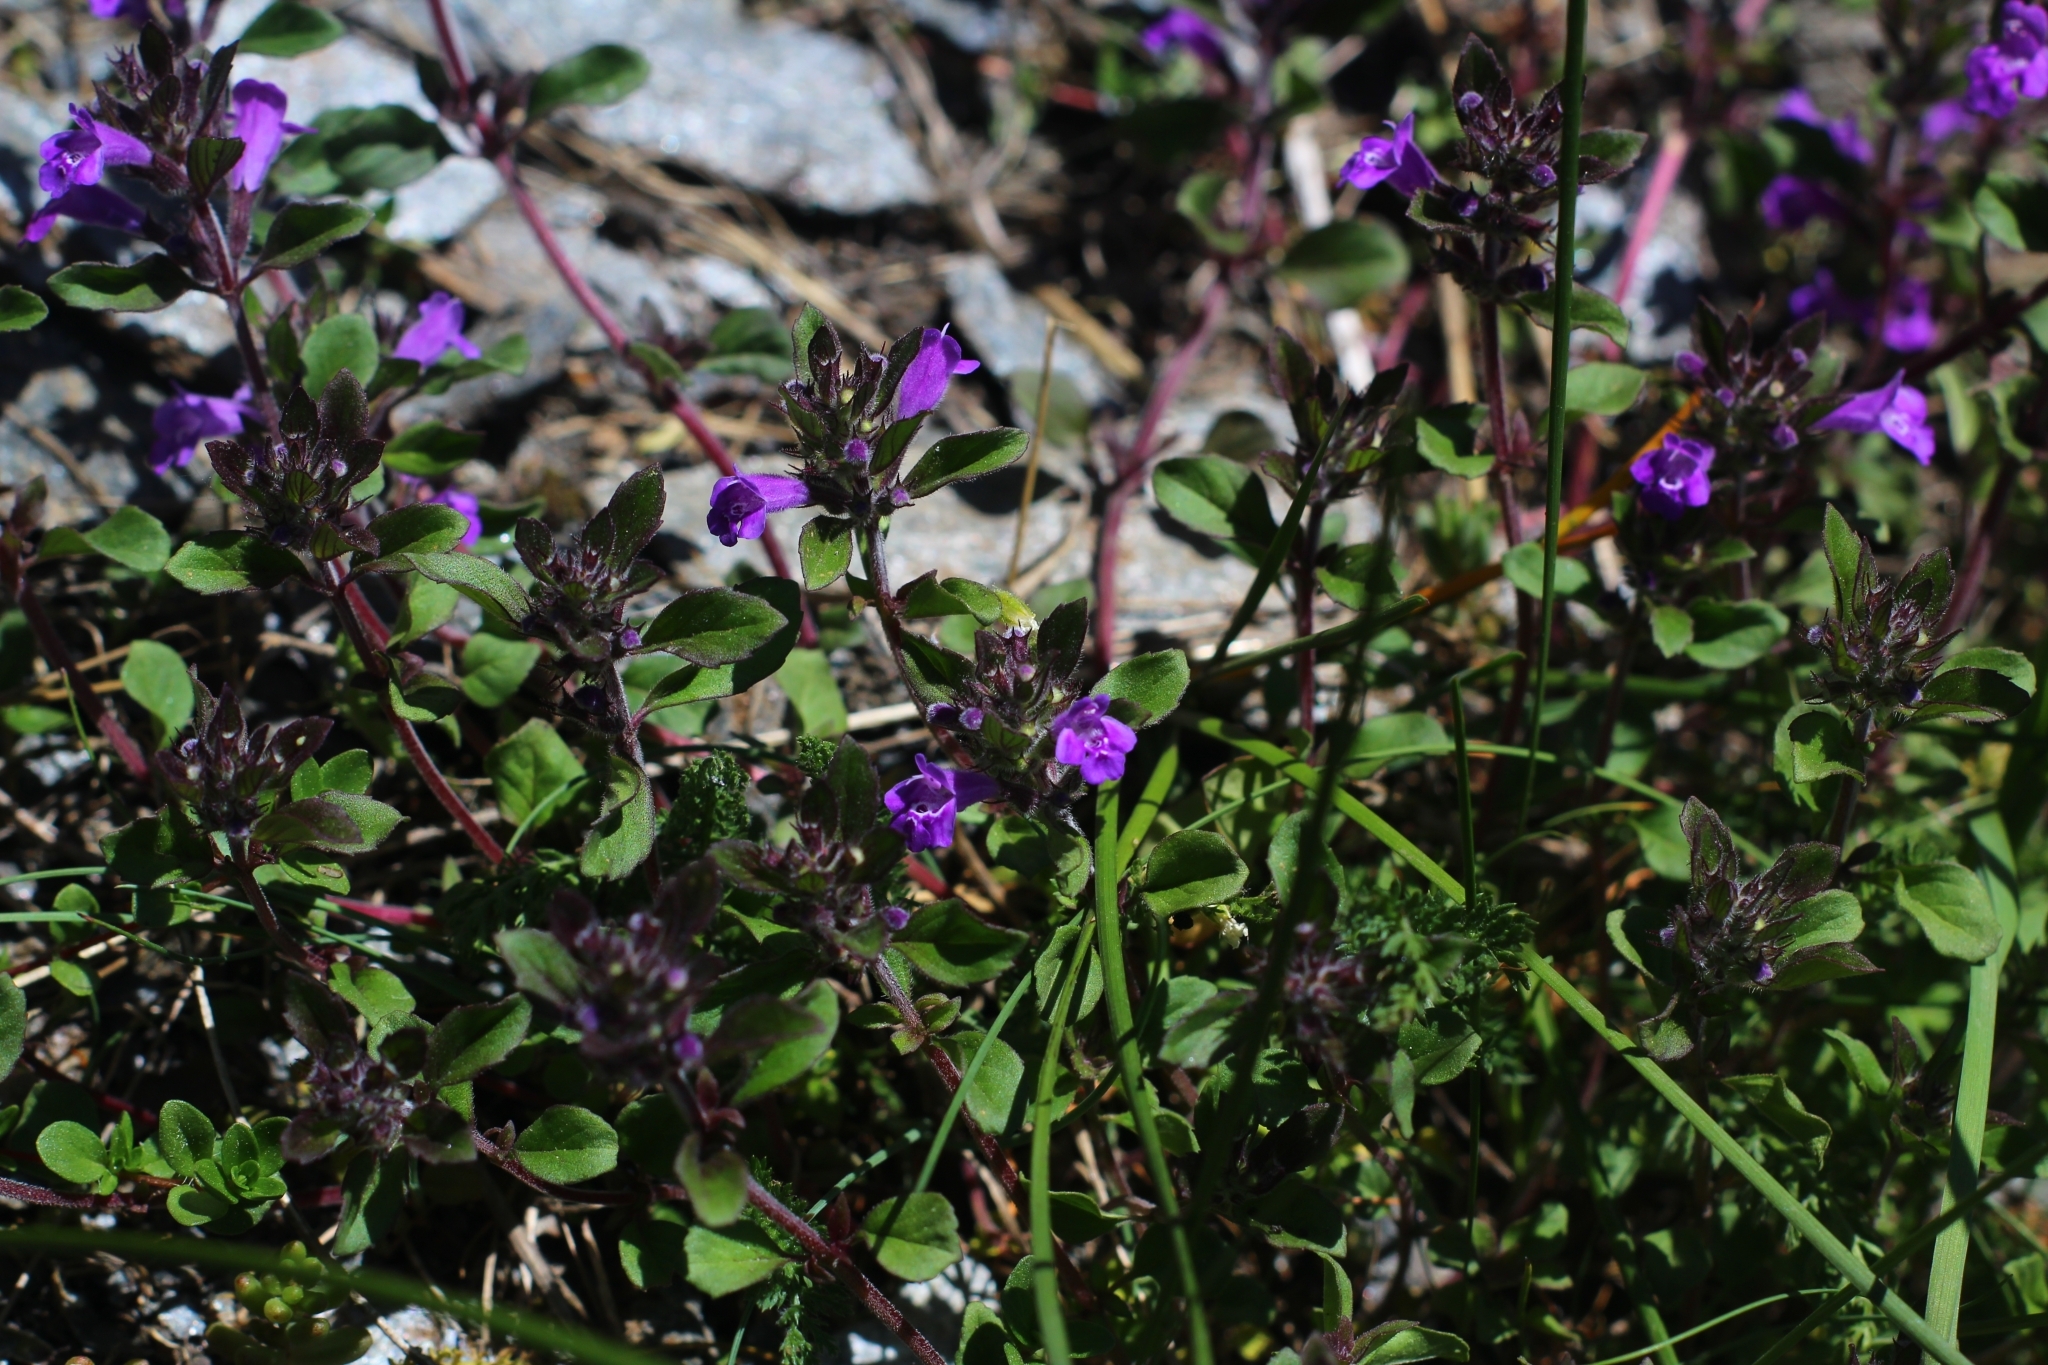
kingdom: Plantae
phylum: Tracheophyta
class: Magnoliopsida
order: Lamiales
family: Lamiaceae
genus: Clinopodium
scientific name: Clinopodium alpinum
